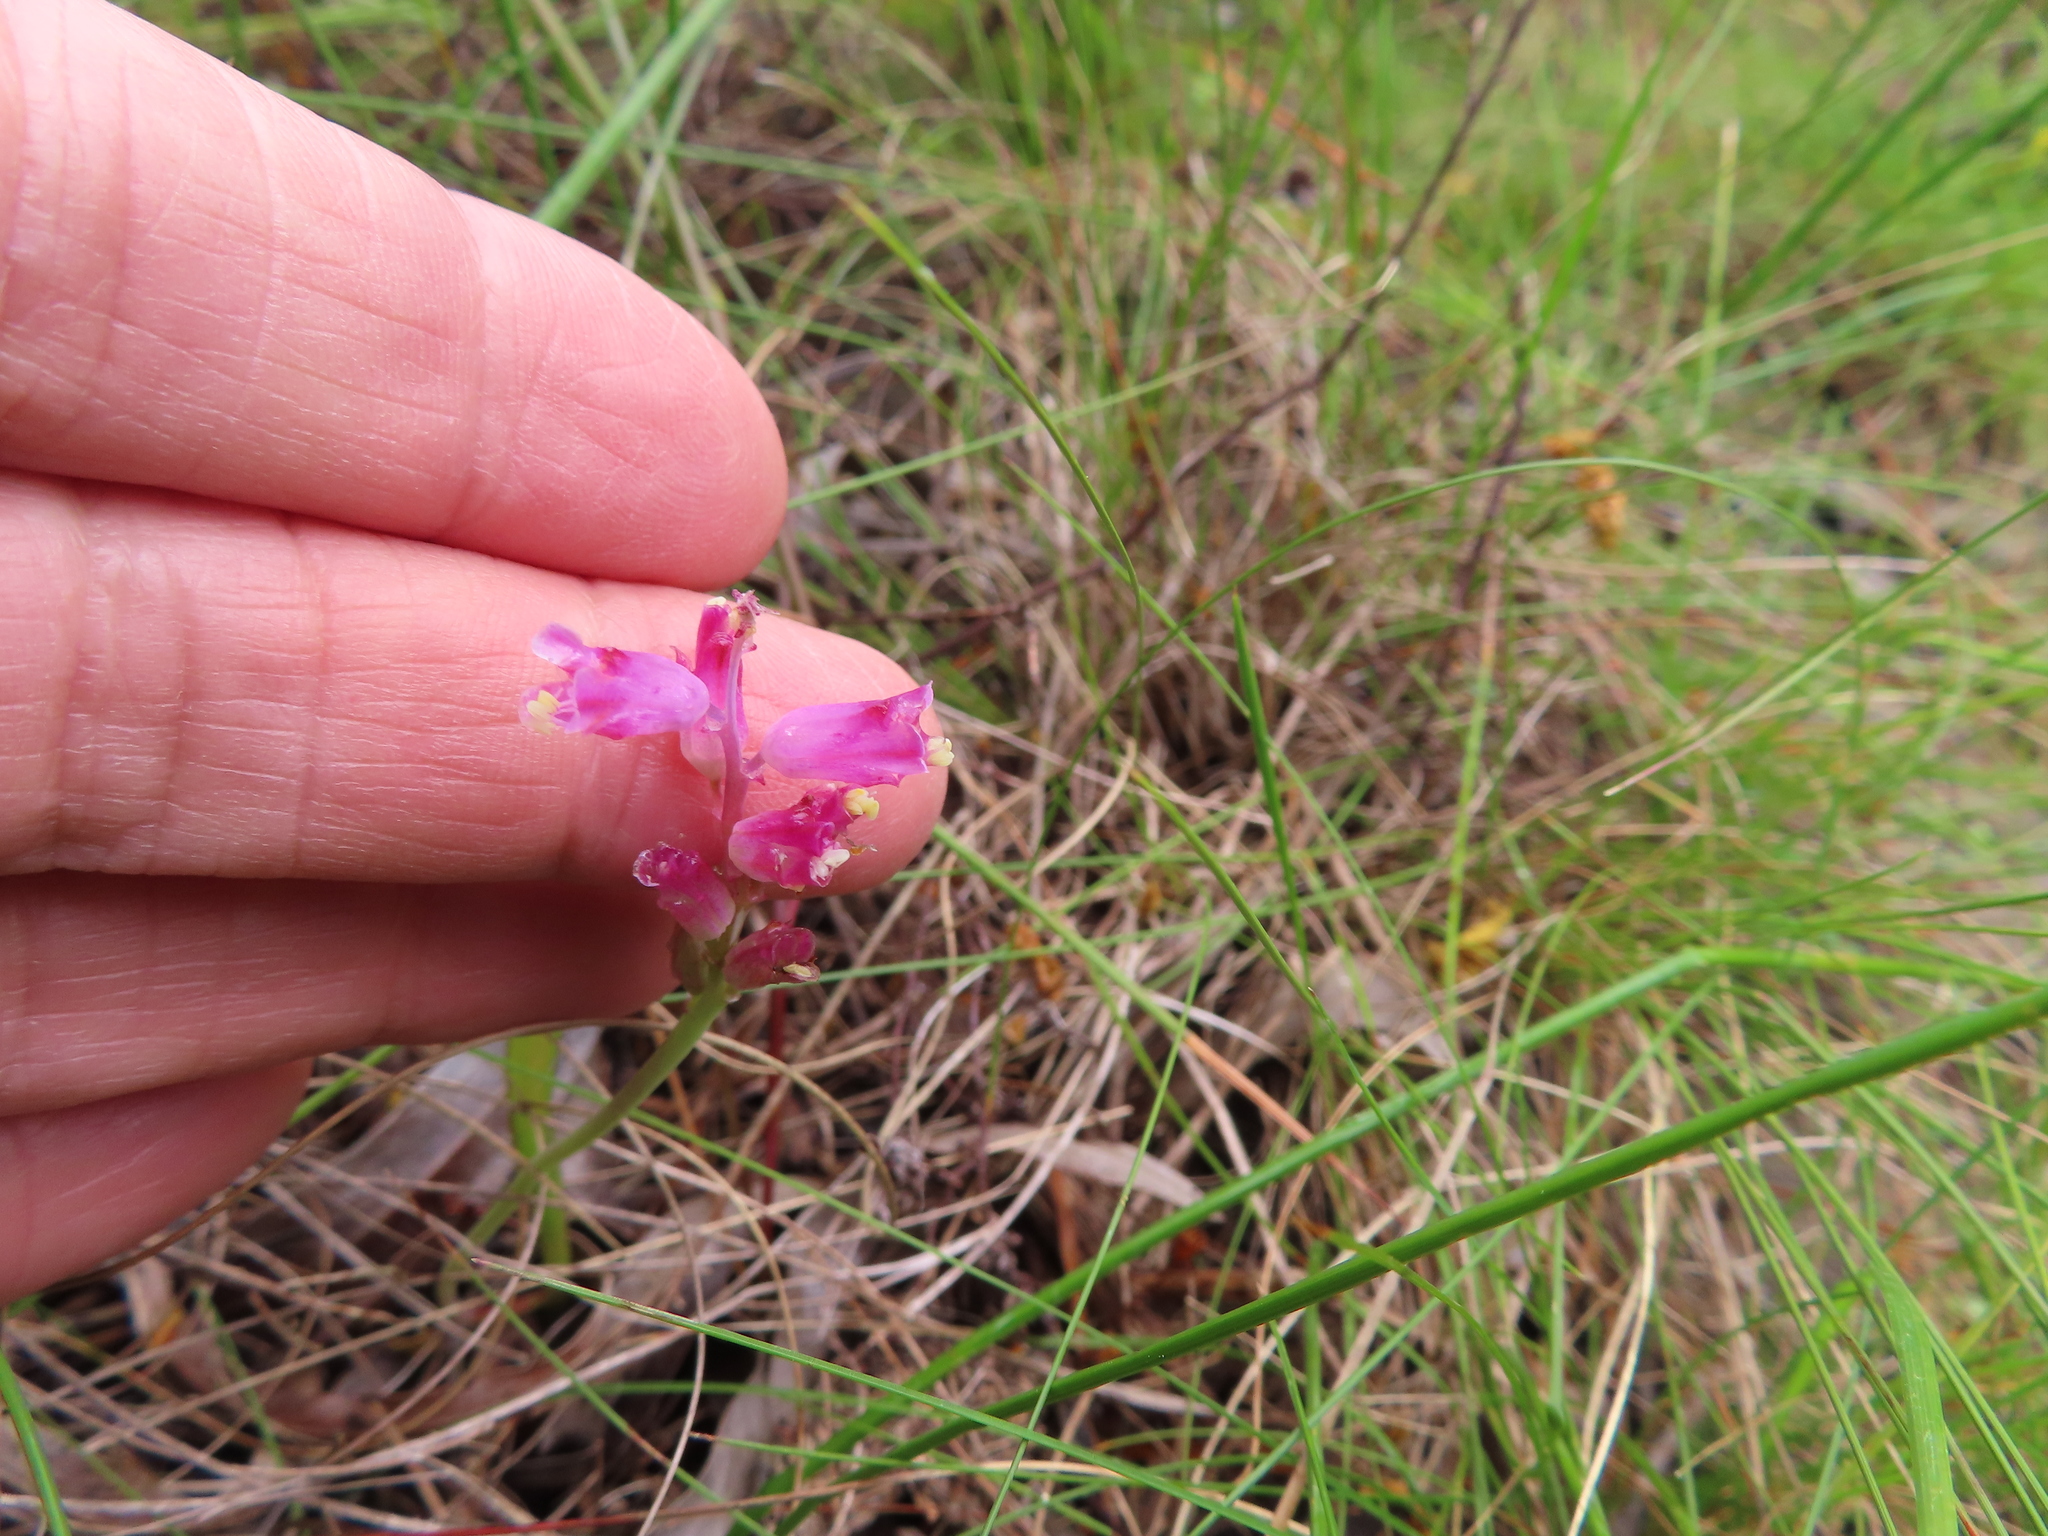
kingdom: Plantae
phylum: Tracheophyta
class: Liliopsida
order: Asparagales
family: Asparagaceae
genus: Lachenalia
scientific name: Lachenalia rosea
